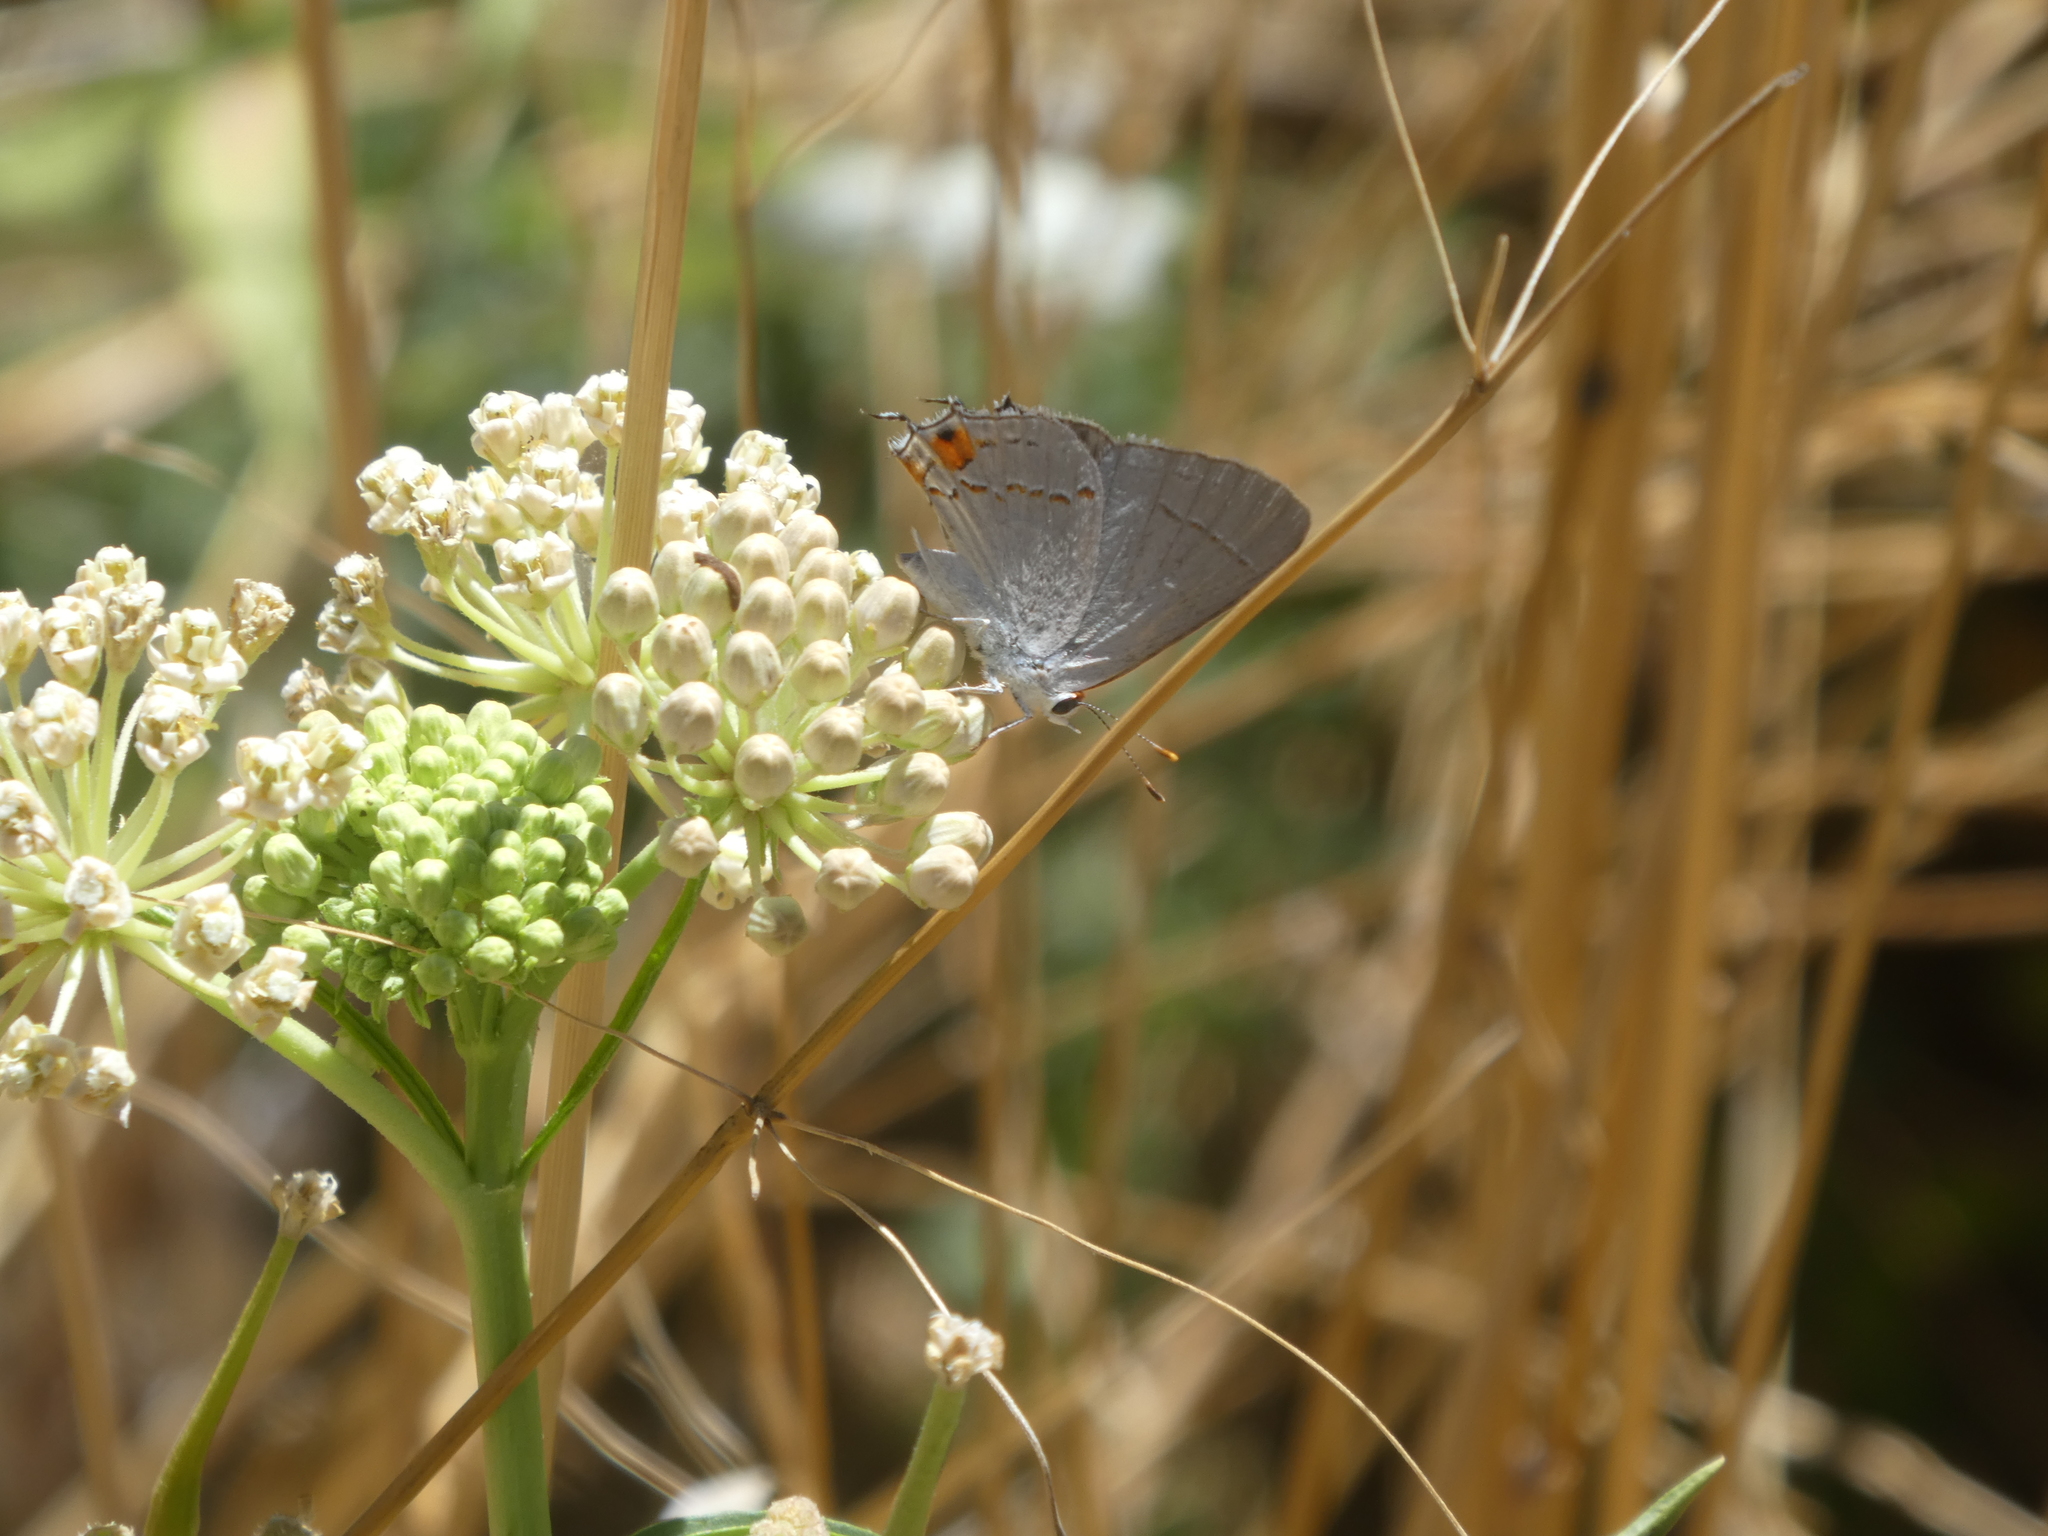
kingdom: Animalia
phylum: Arthropoda
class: Insecta
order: Lepidoptera
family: Lycaenidae
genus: Strymon
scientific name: Strymon melinus
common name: Gray hairstreak
